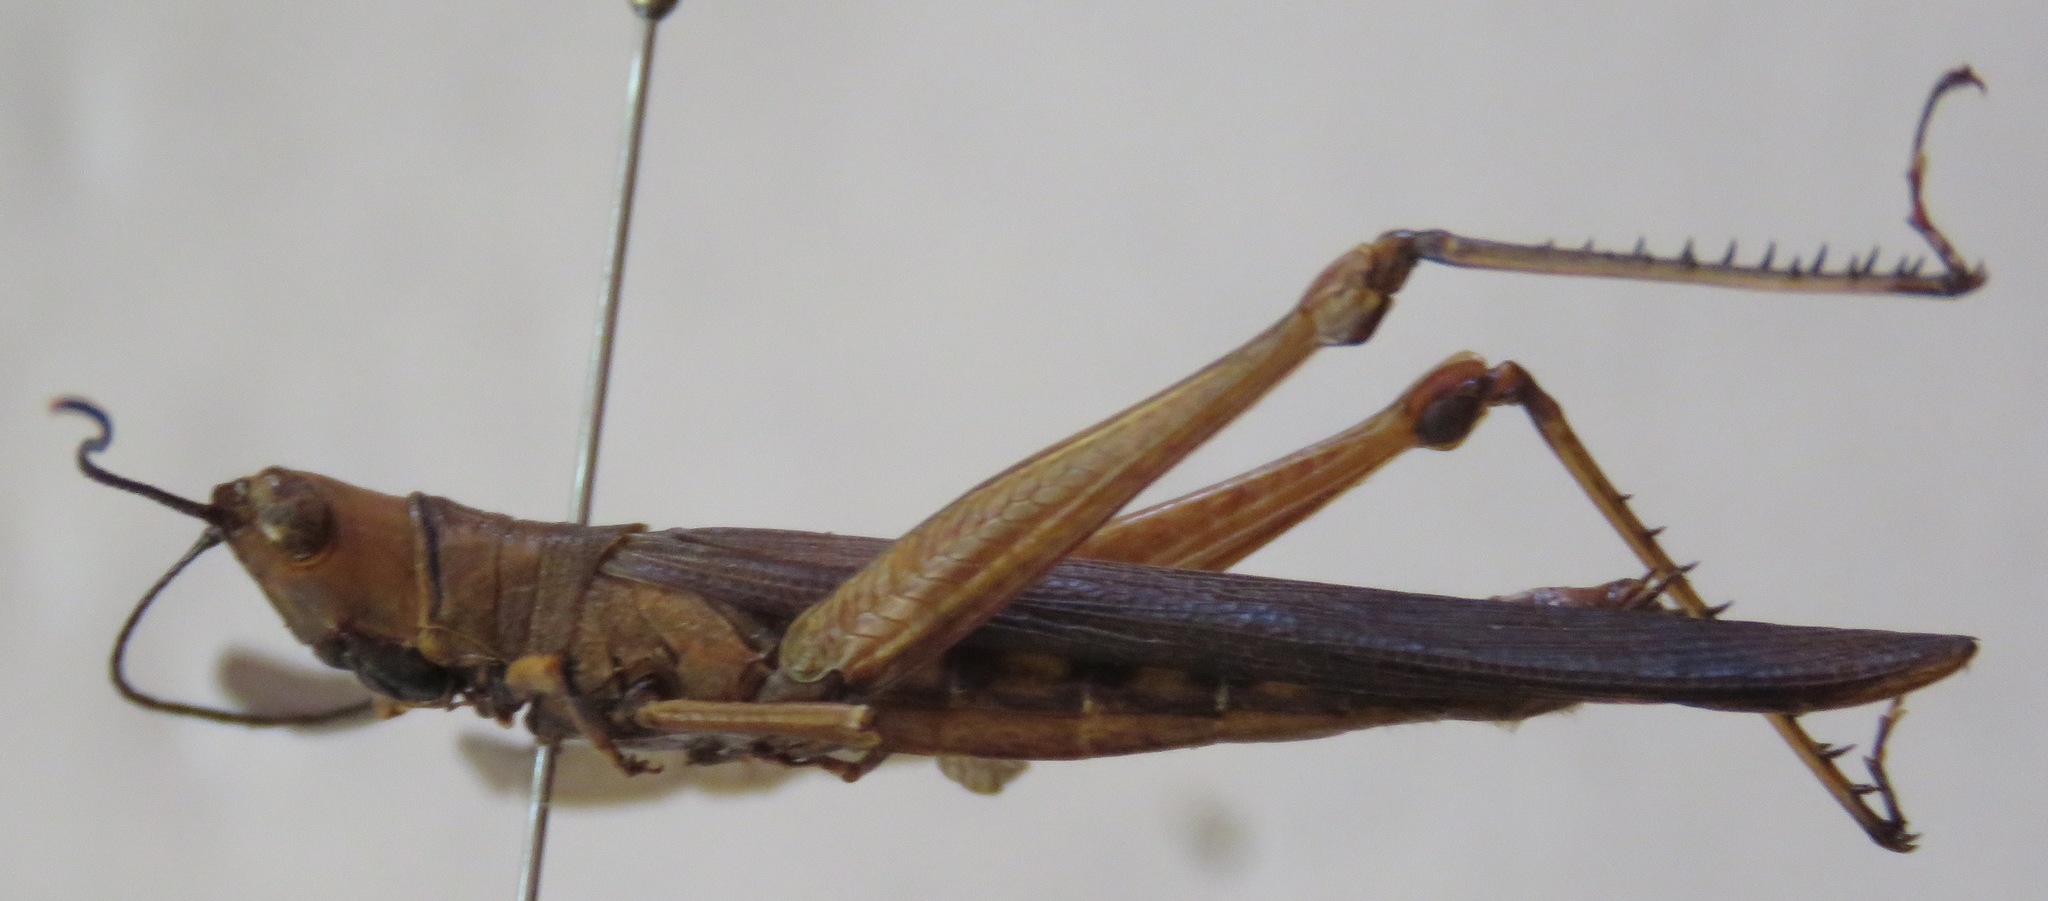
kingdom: Animalia
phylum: Arthropoda
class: Insecta
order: Orthoptera
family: Acrididae
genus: Copiocera
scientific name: Copiocera specularis
